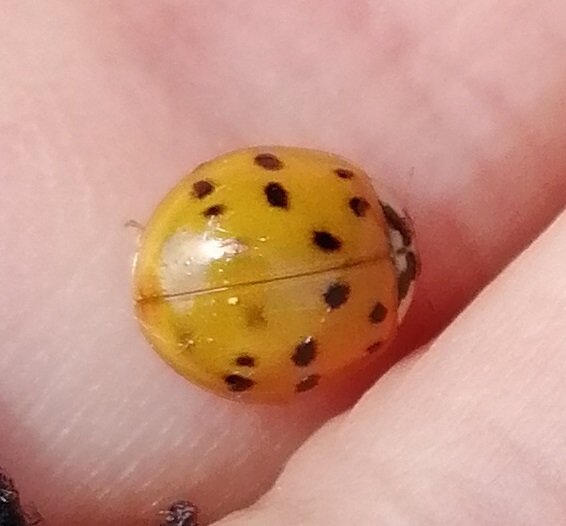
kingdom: Animalia
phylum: Arthropoda
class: Insecta
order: Coleoptera
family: Coccinellidae
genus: Harmonia
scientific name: Harmonia axyridis
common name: Harlequin ladybird
